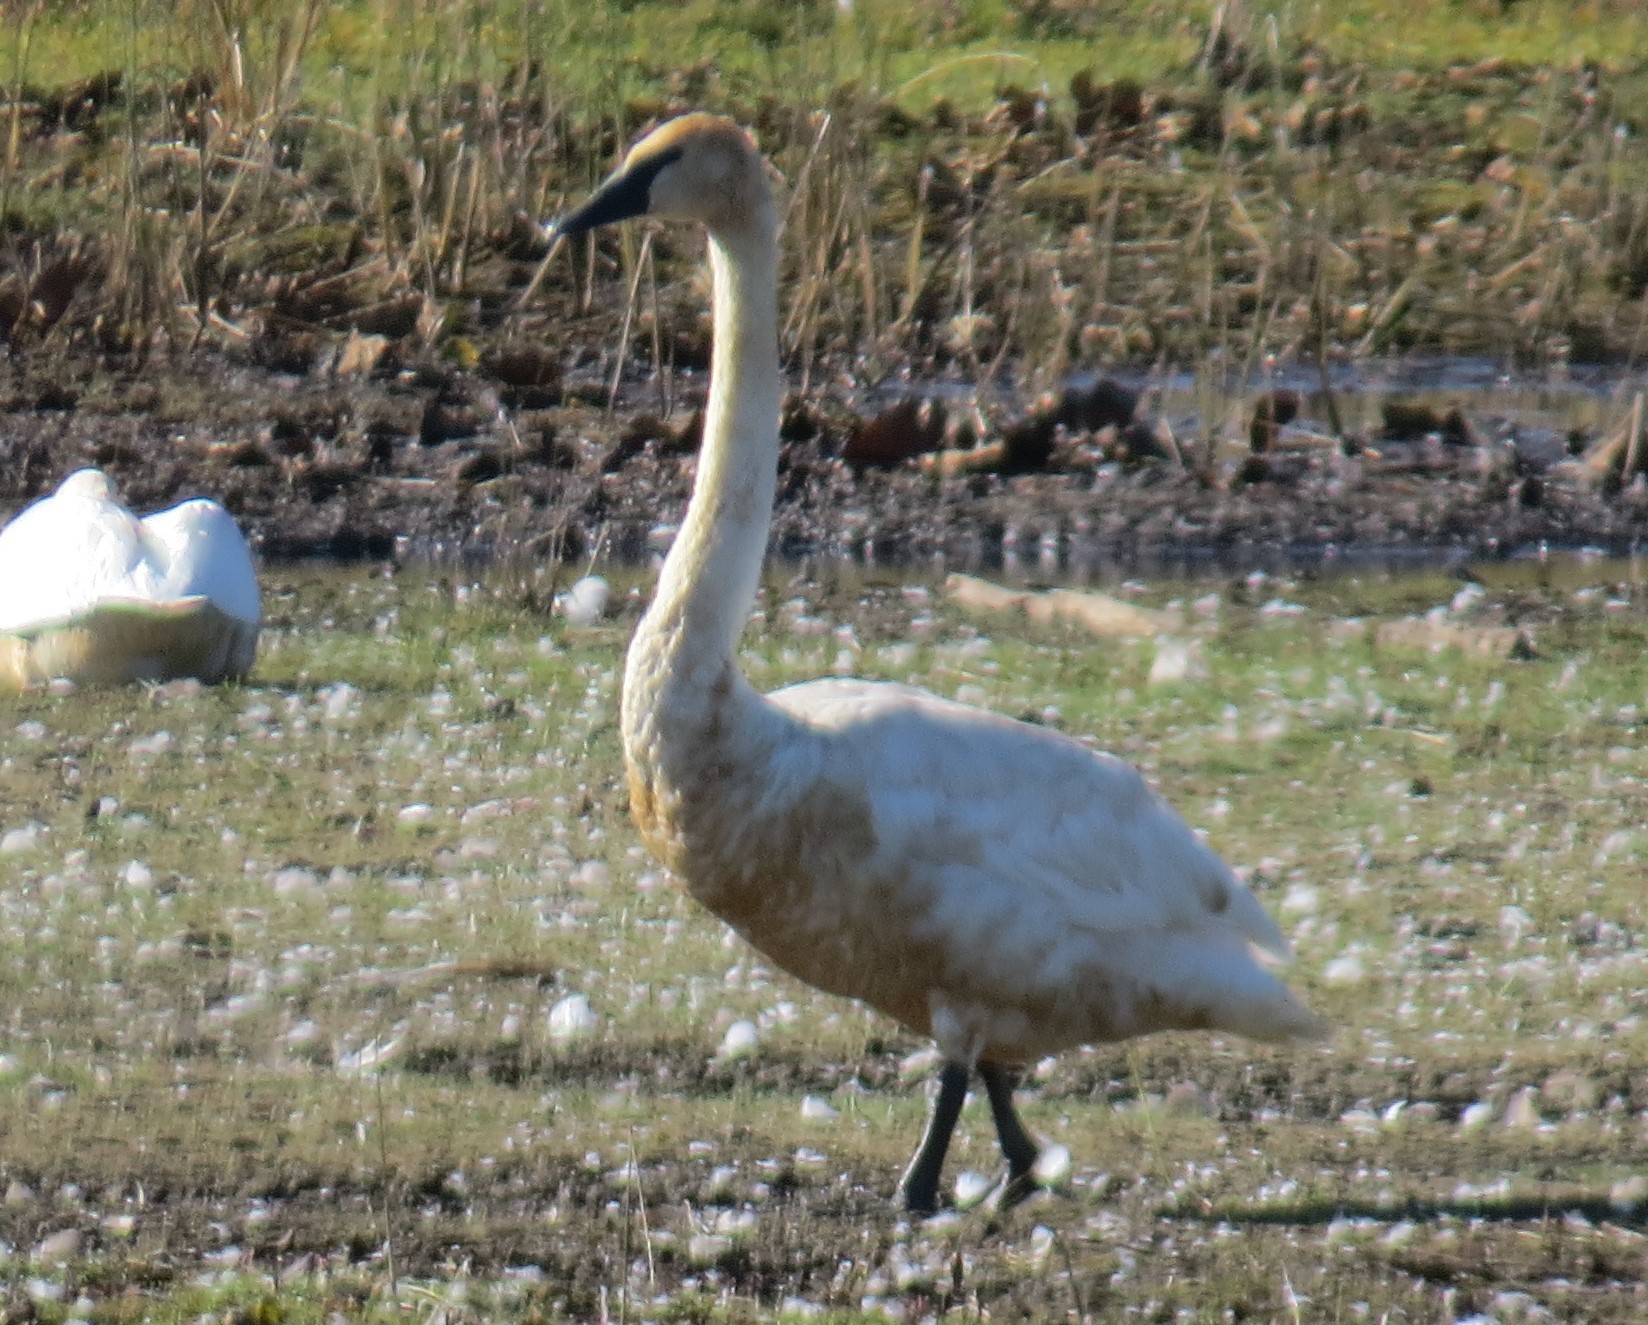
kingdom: Animalia
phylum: Chordata
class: Aves
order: Anseriformes
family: Anatidae
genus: Cygnus
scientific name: Cygnus buccinator
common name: Trumpeter swan
